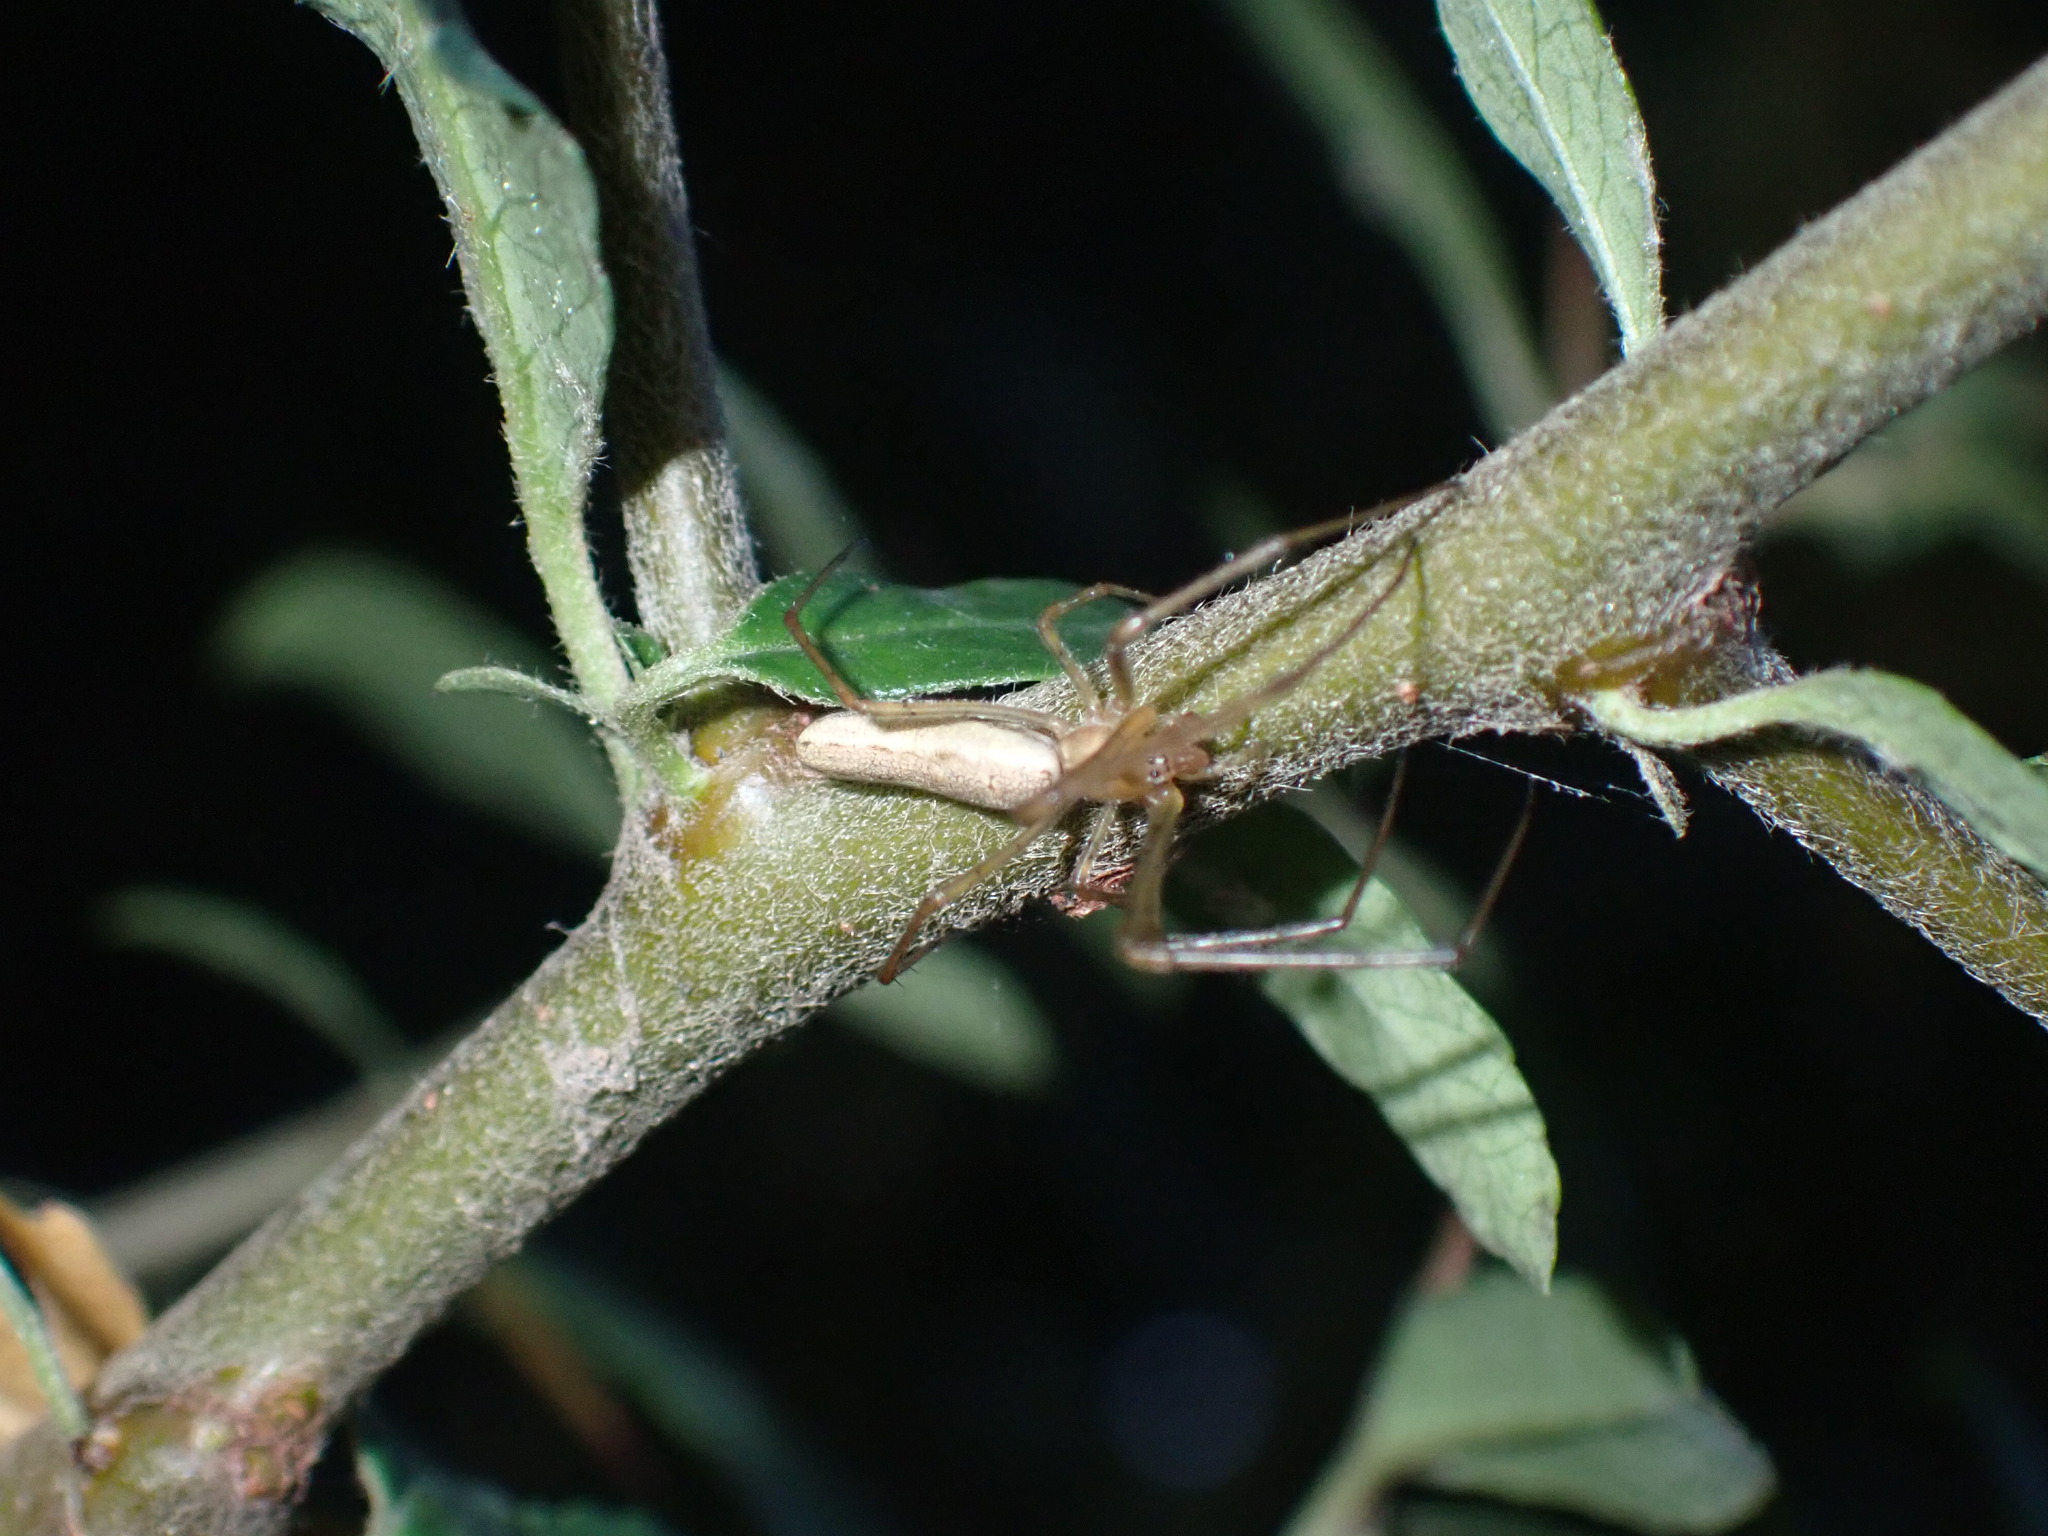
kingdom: Animalia
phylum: Arthropoda
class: Arachnida
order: Araneae
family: Tetragnathidae
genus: Tetragnatha
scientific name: Tetragnatha
